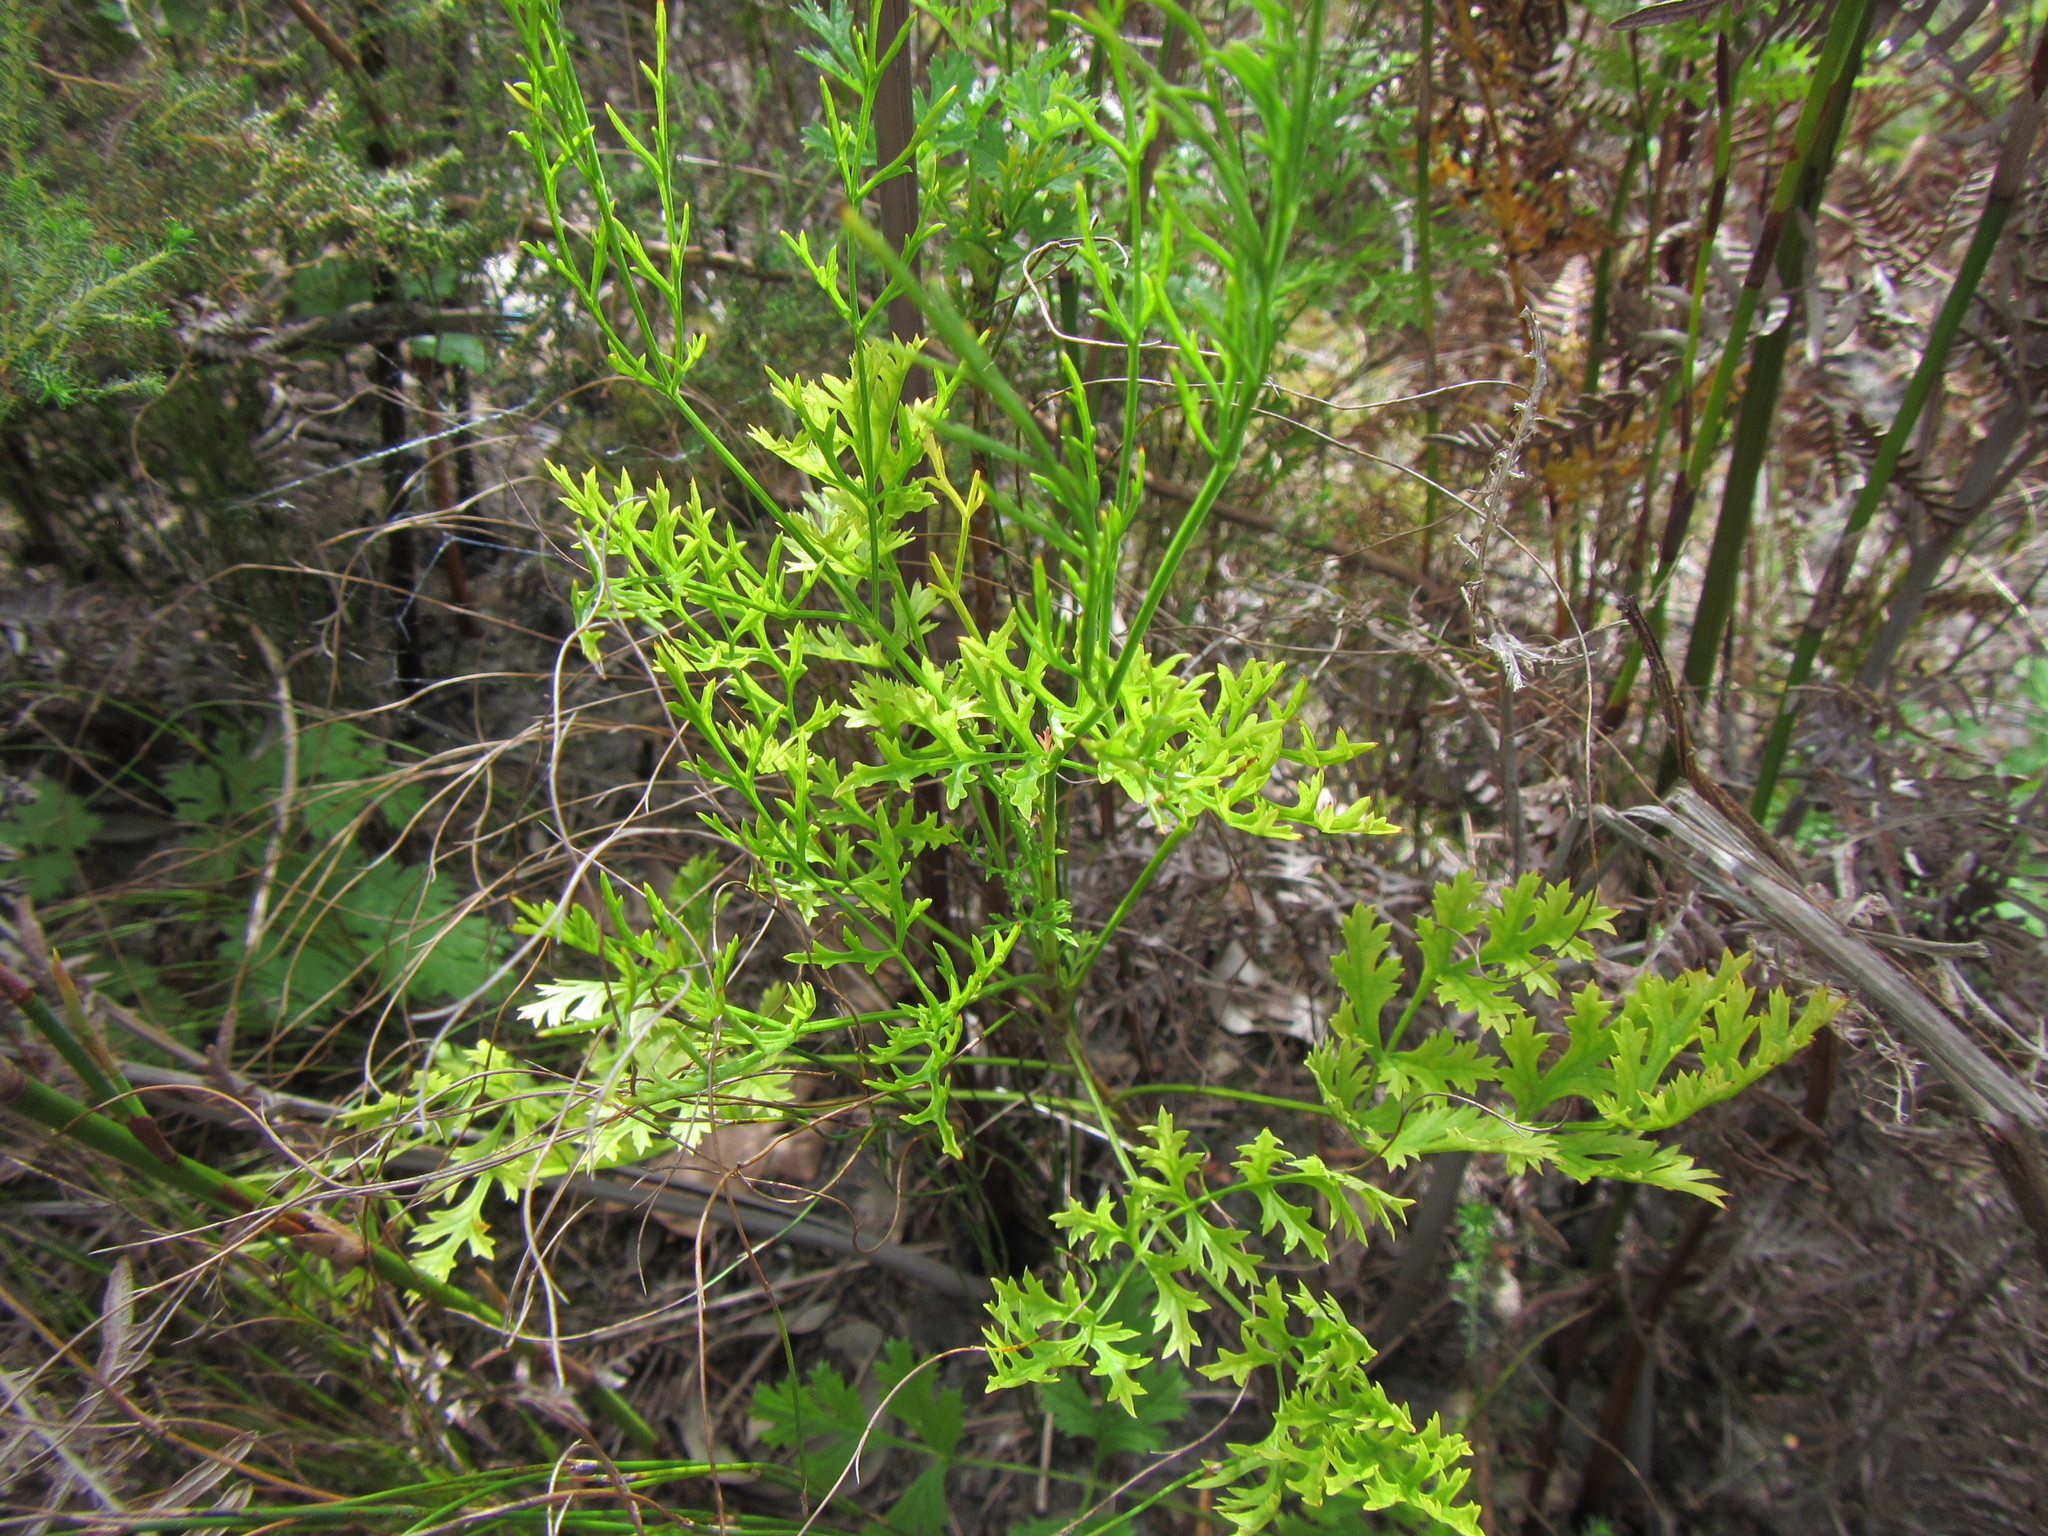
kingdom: Plantae
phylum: Tracheophyta
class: Magnoliopsida
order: Apiales
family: Apiaceae
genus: Glia
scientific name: Glia prolifera
